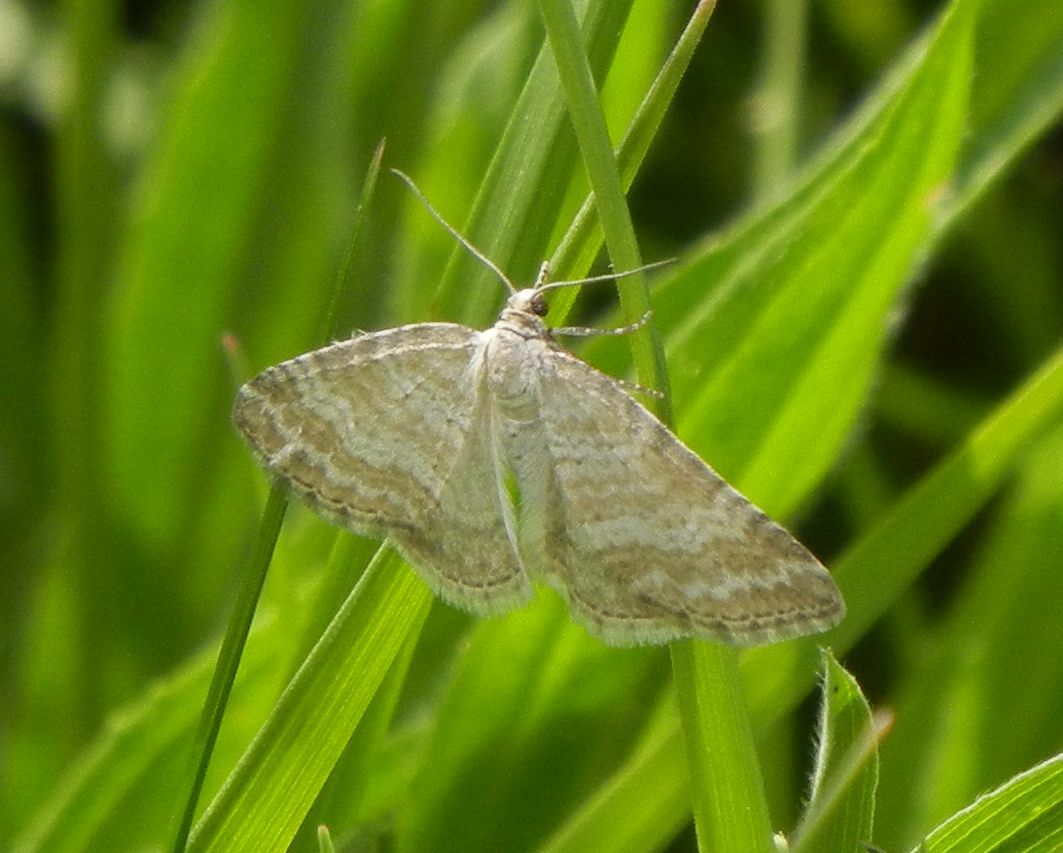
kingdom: Animalia
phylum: Arthropoda
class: Insecta
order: Lepidoptera
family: Geometridae
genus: Perizoma
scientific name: Perizoma albulata
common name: Grass rivulet
